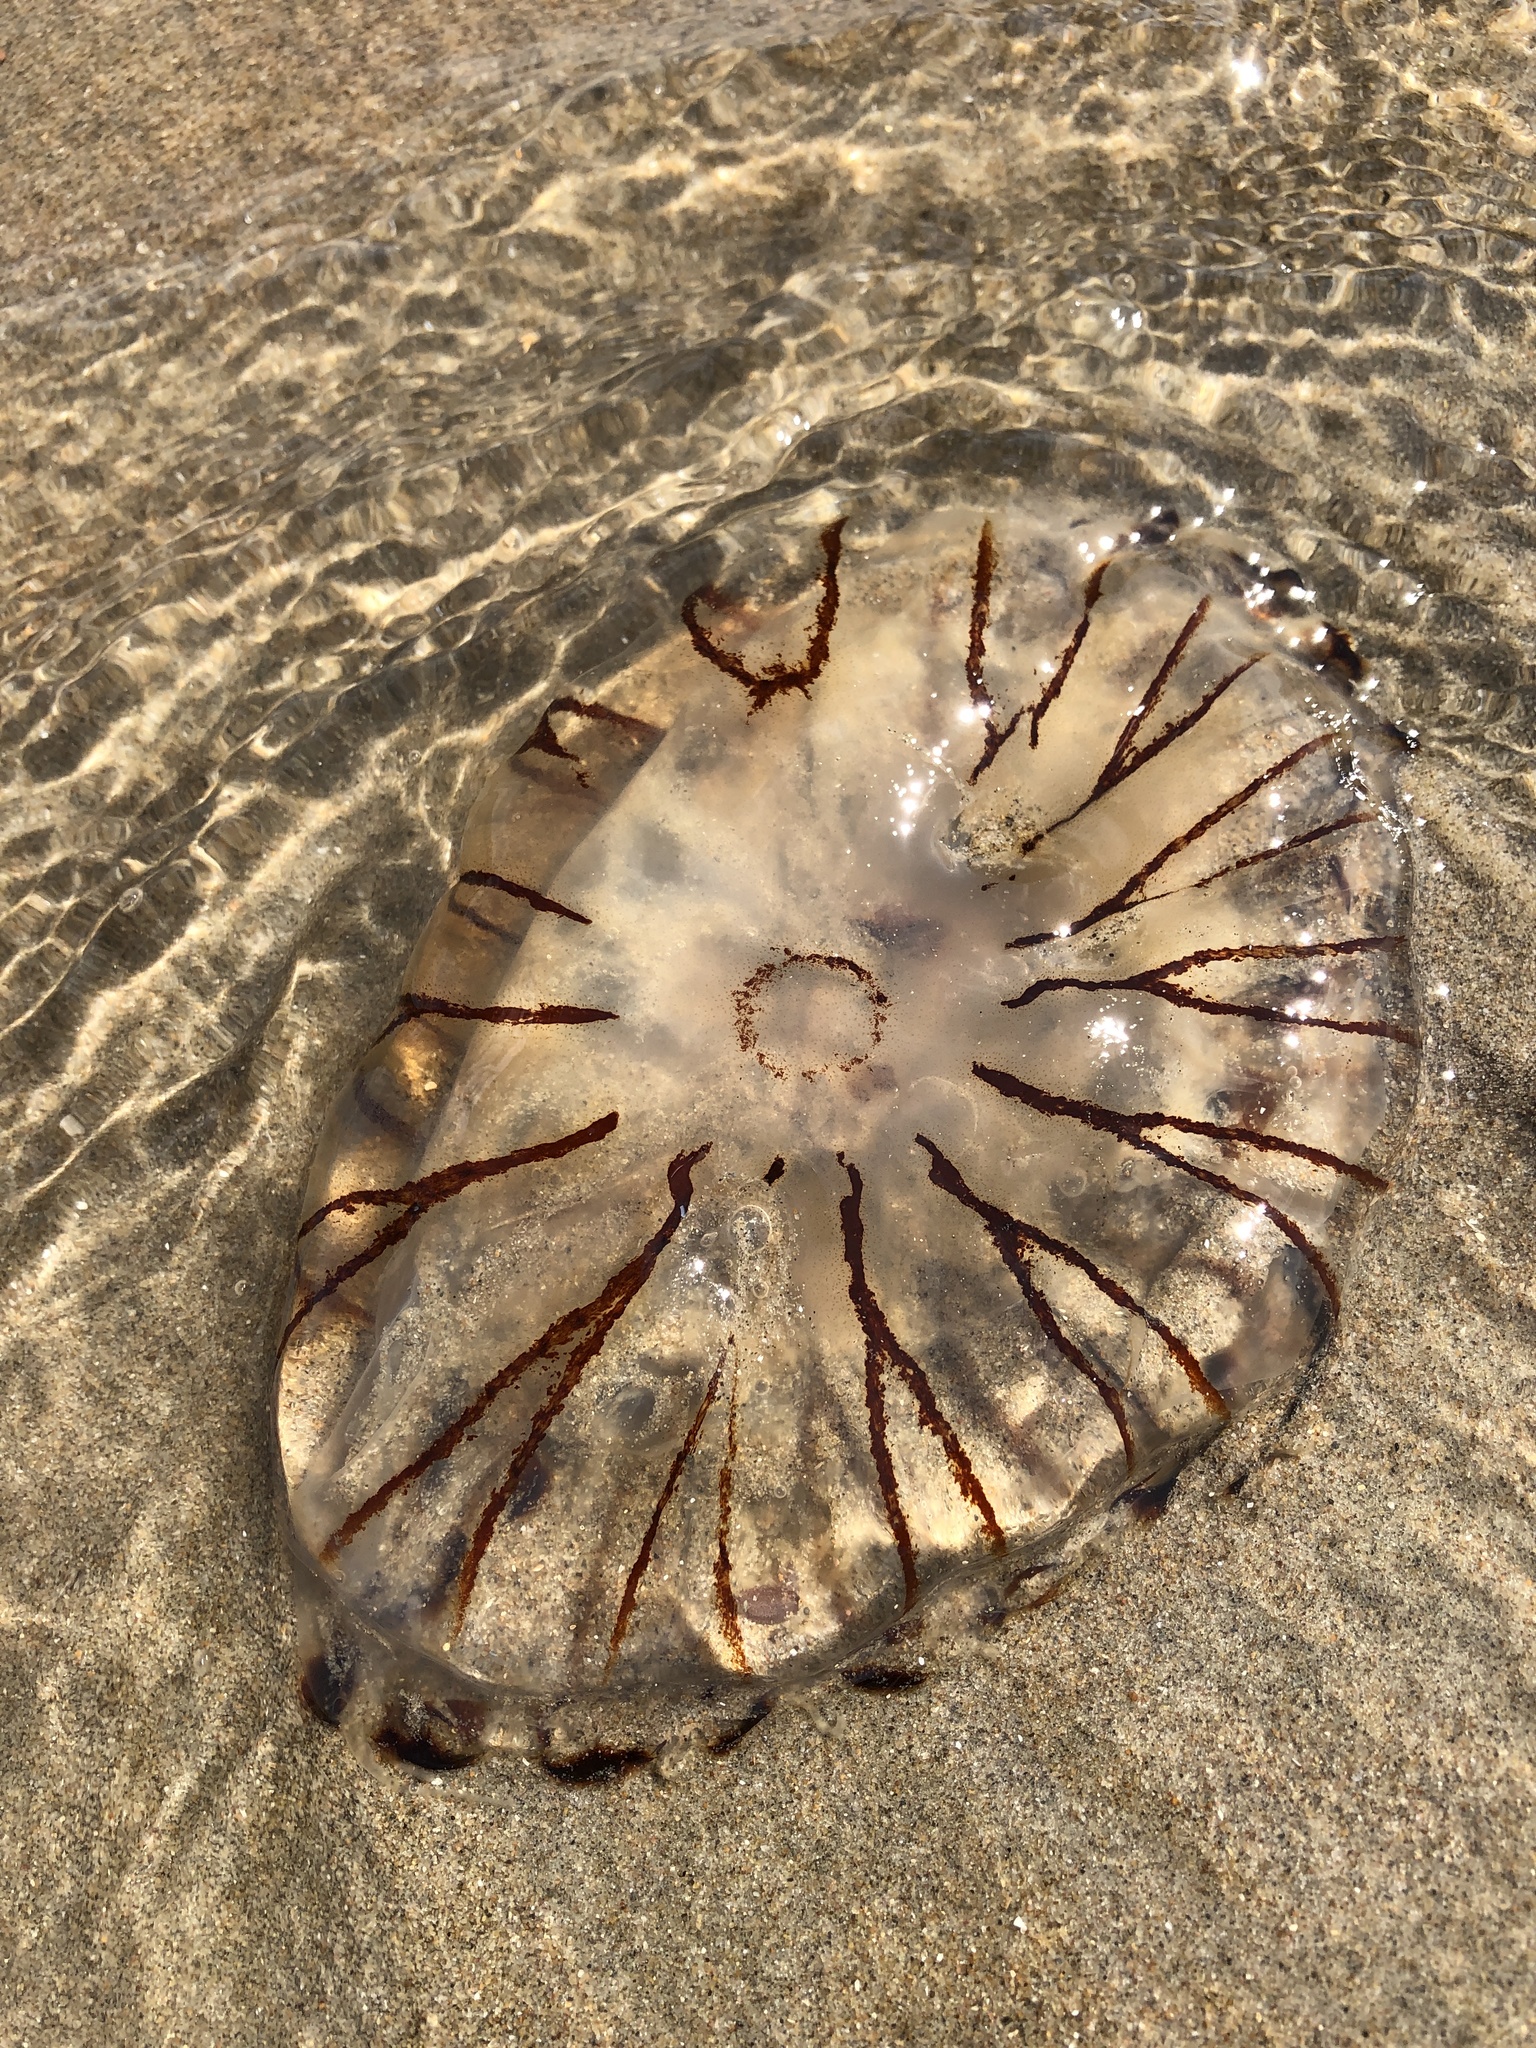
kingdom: Animalia
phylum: Cnidaria
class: Scyphozoa
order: Semaeostomeae
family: Pelagiidae
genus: Chrysaora
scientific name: Chrysaora hysoscella
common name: Compass jellyfish
